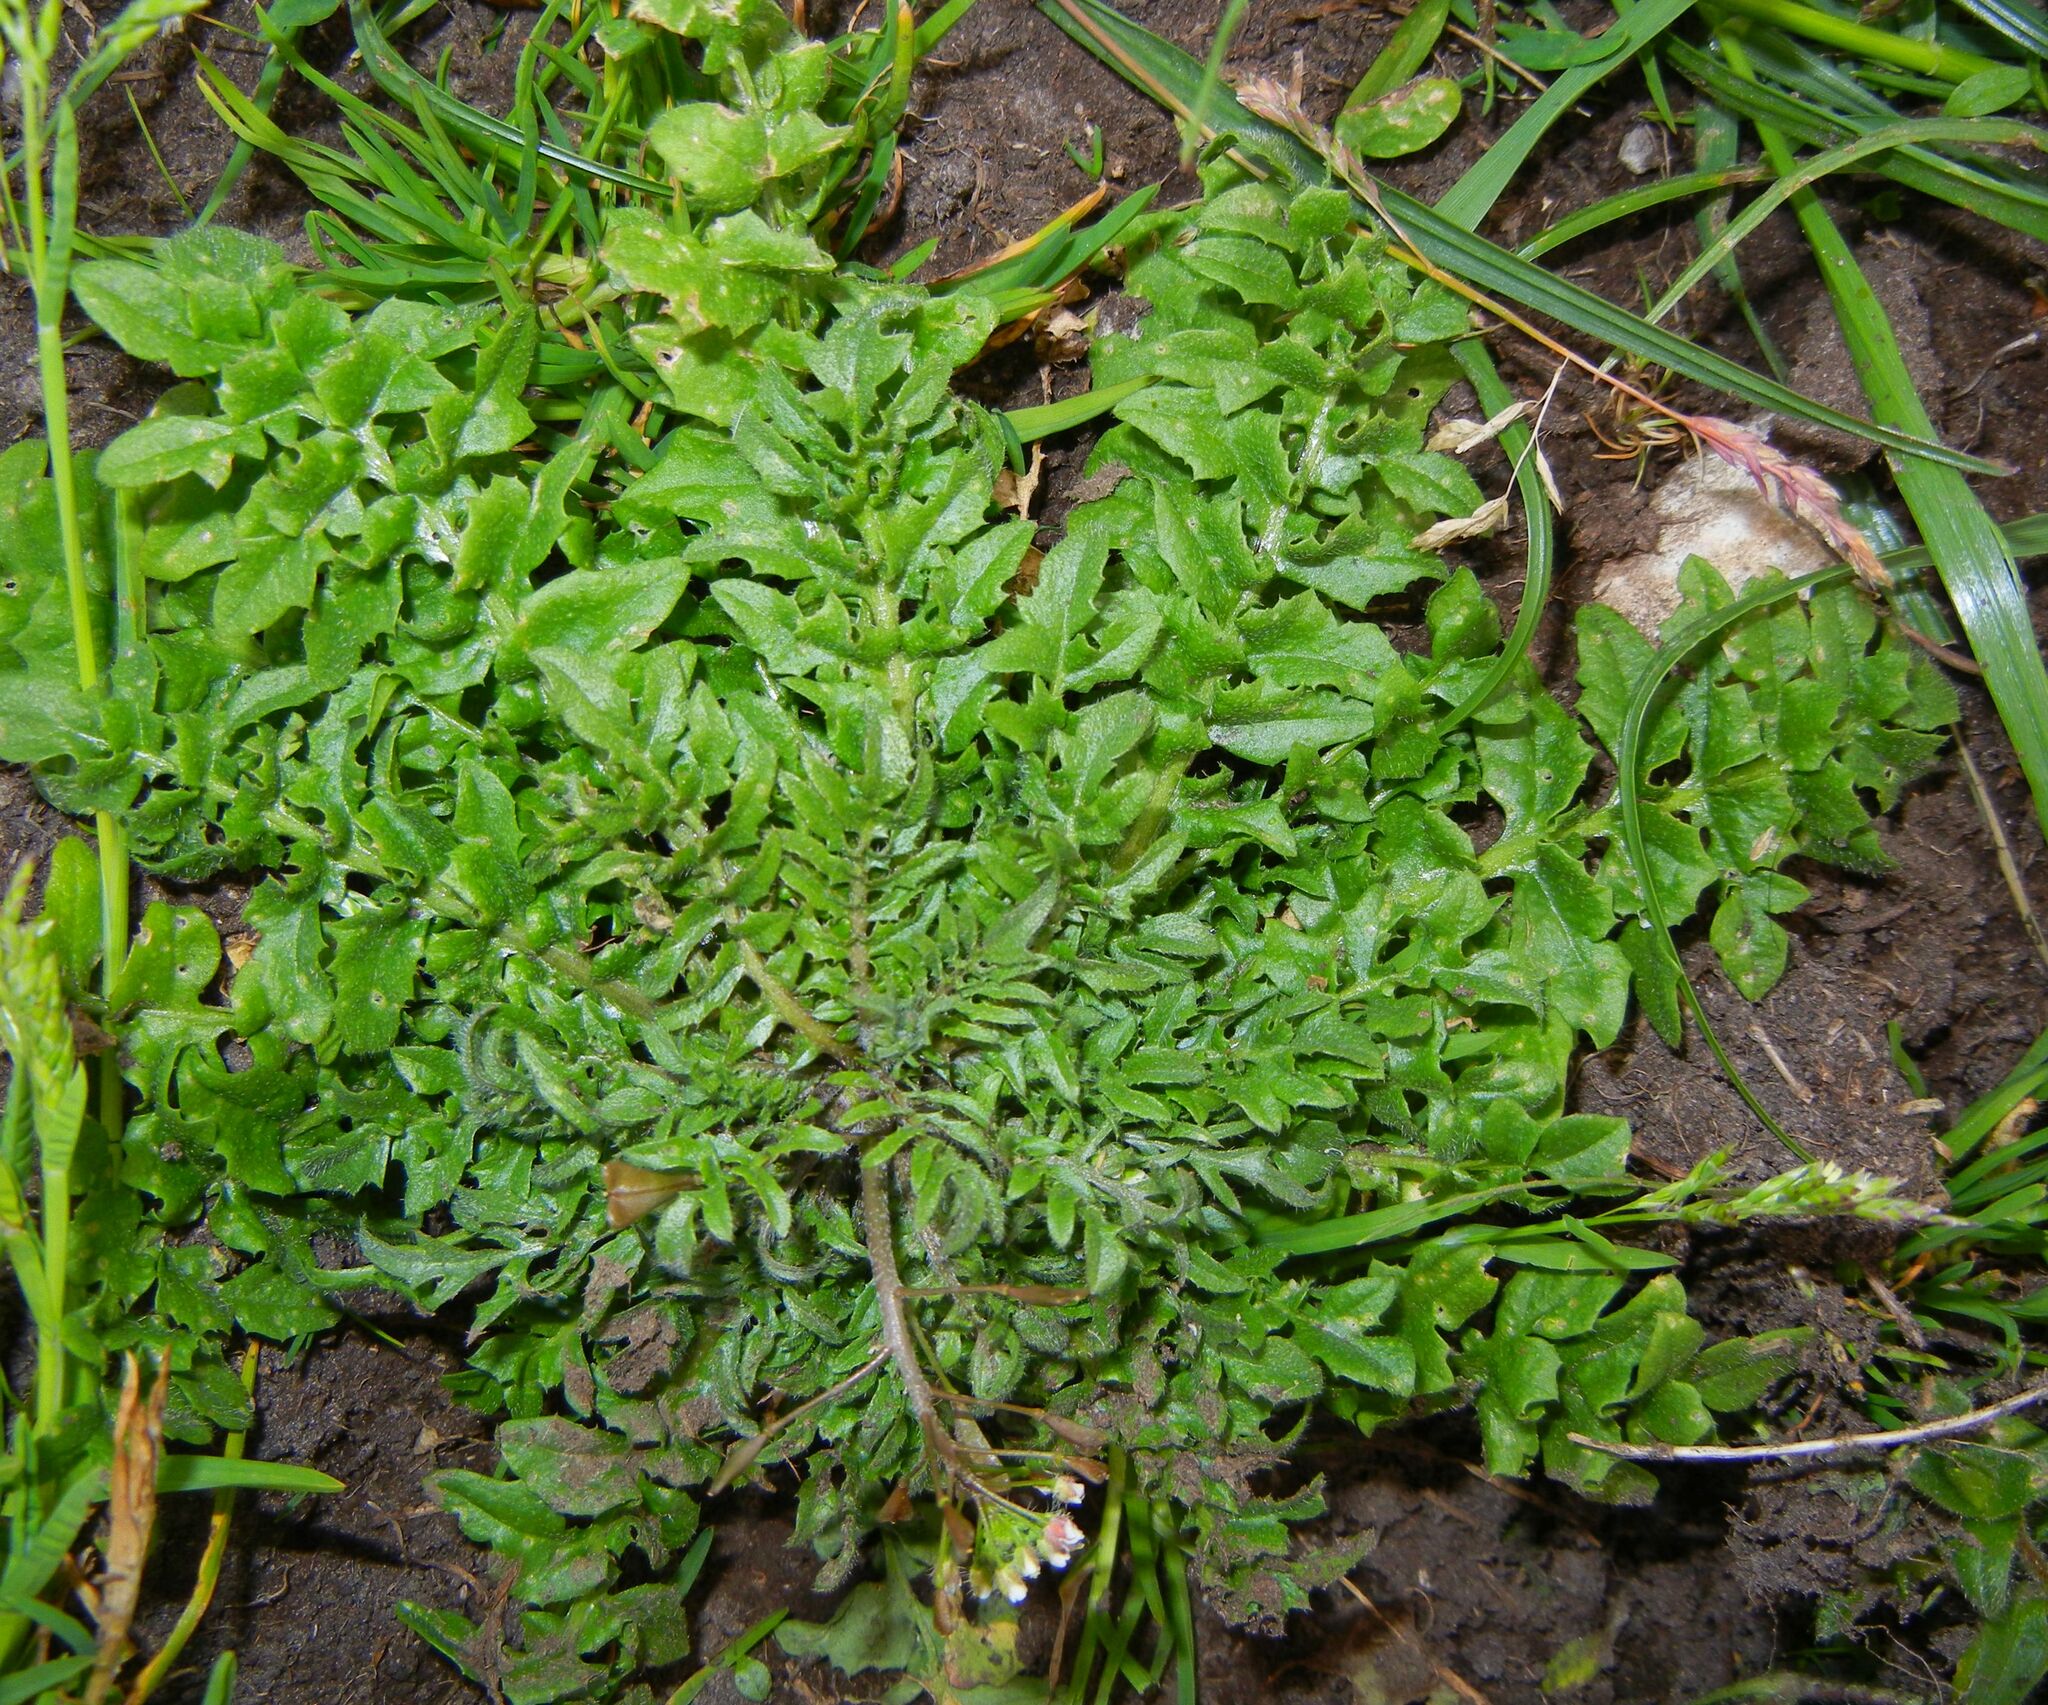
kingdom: Plantae
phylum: Tracheophyta
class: Magnoliopsida
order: Brassicales
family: Brassicaceae
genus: Capsella
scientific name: Capsella bursa-pastoris
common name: Shepherd's purse
